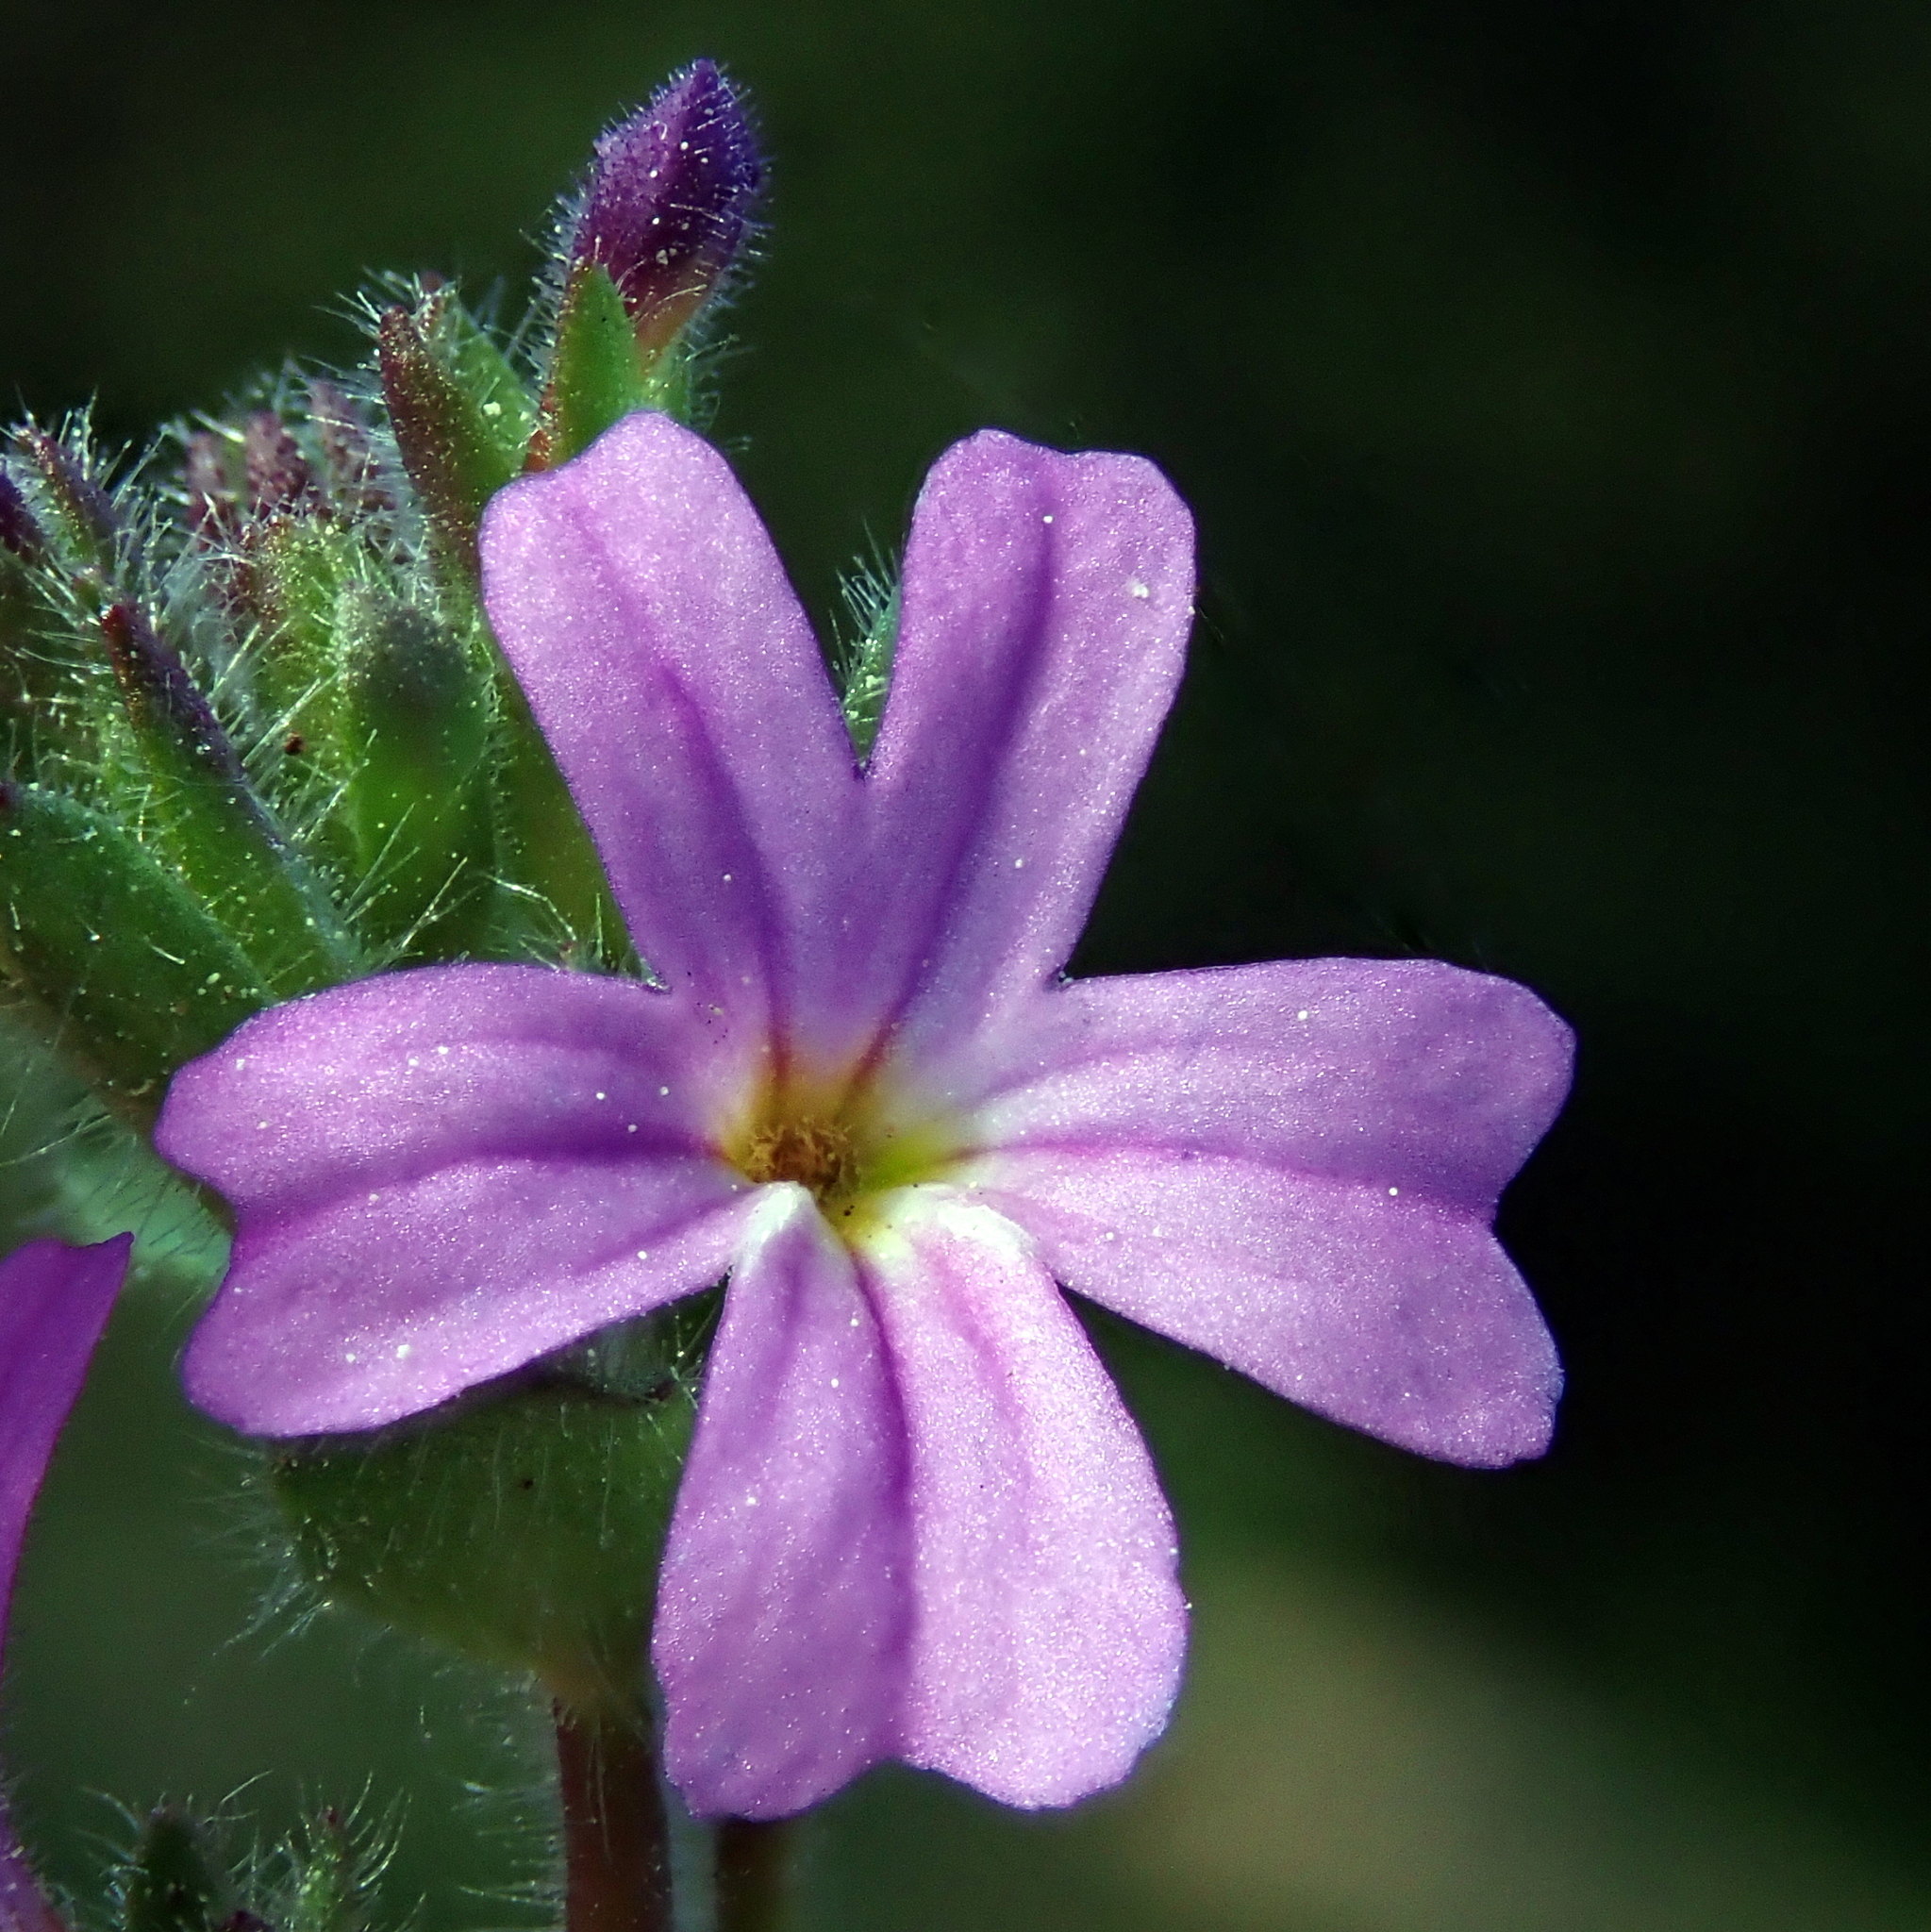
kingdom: Plantae
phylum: Tracheophyta
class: Magnoliopsida
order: Lamiales
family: Plantaginaceae
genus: Erinus
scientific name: Erinus alpinus
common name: Fairy foxglove
